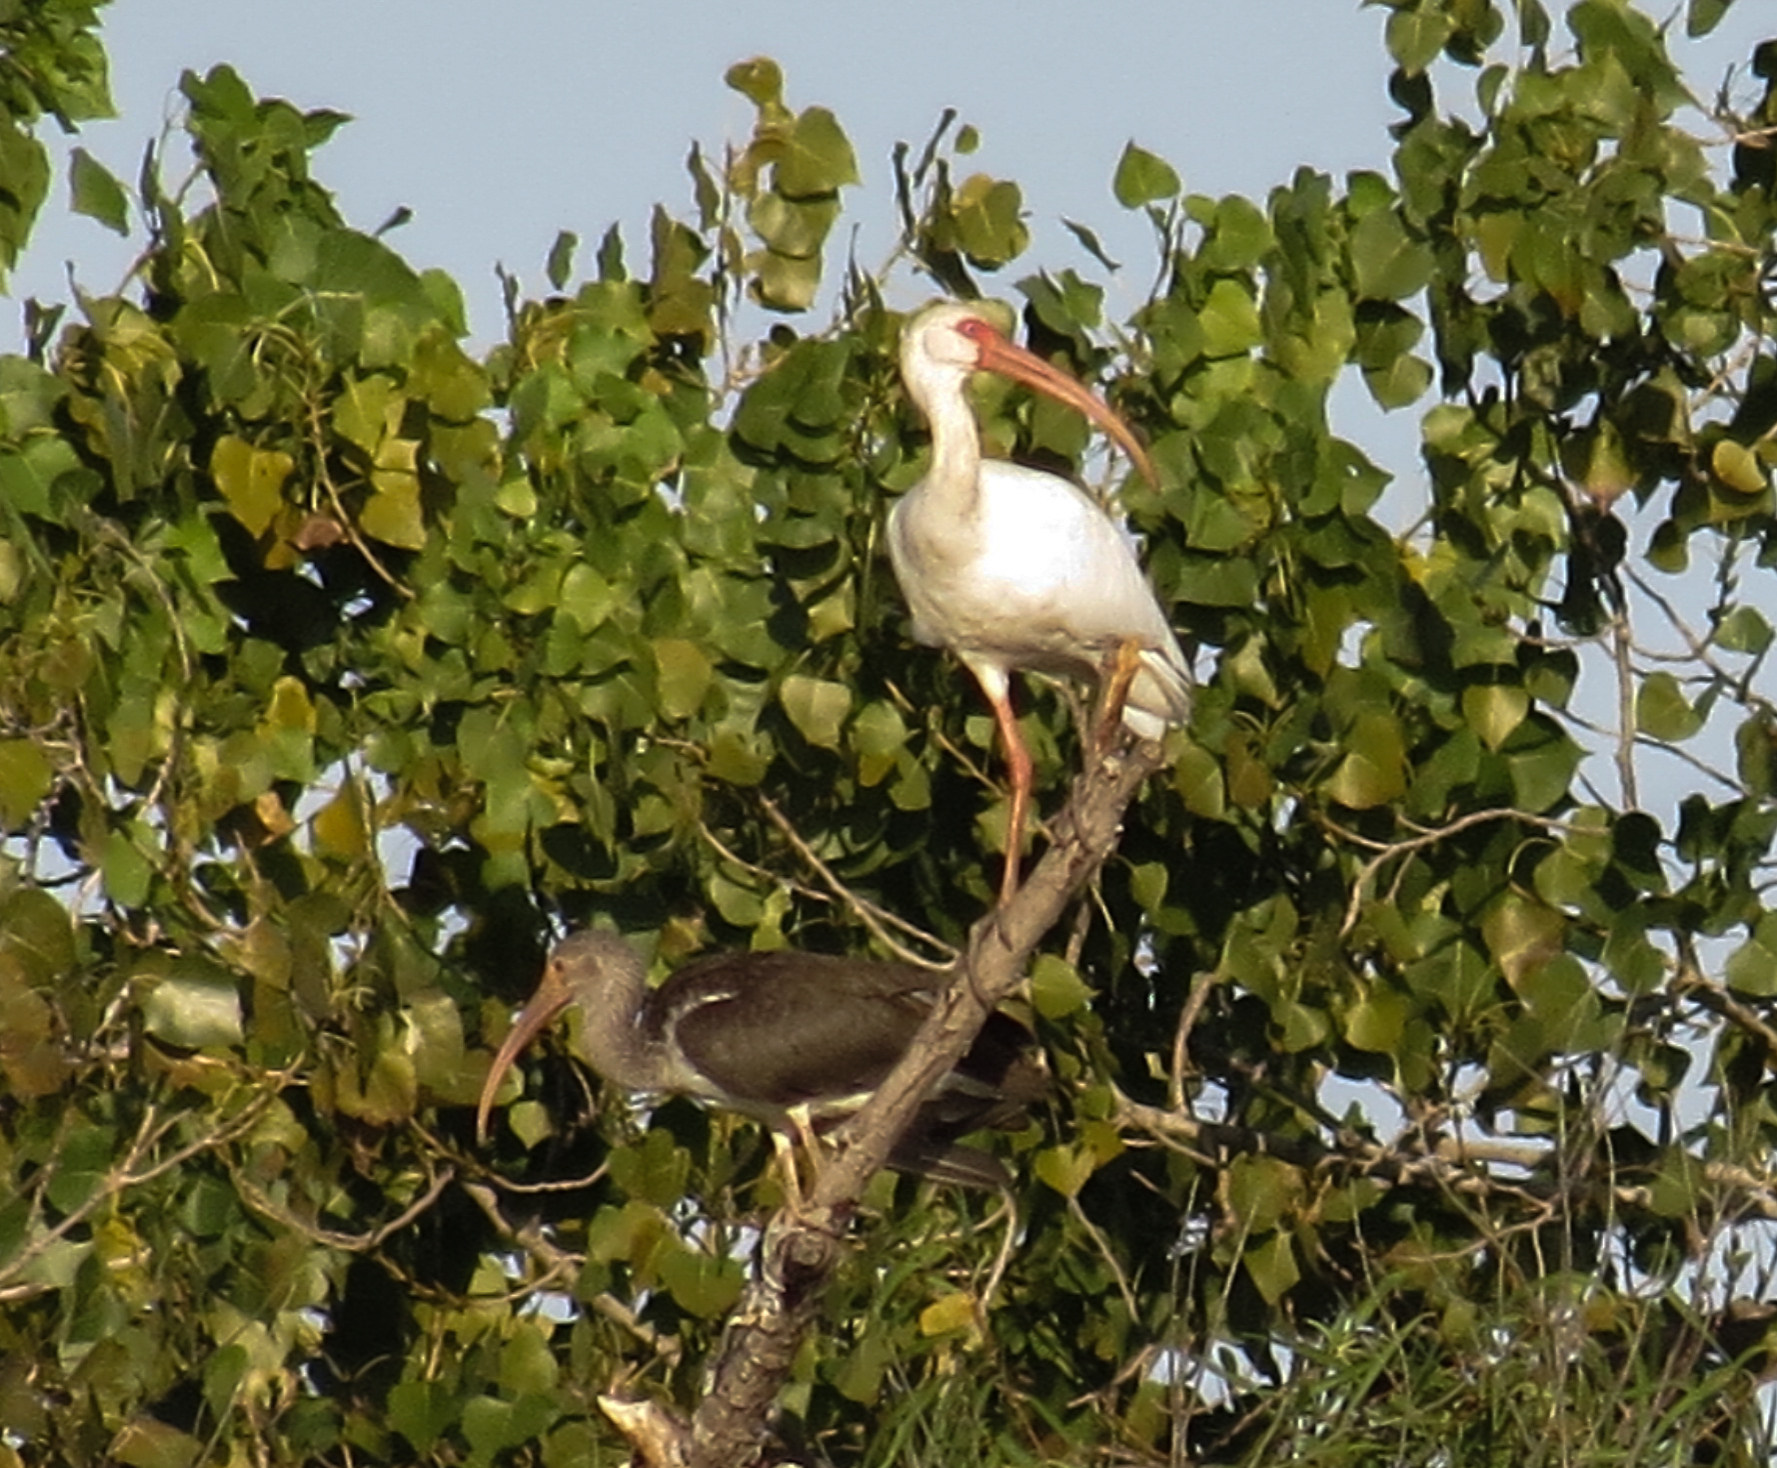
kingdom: Animalia
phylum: Chordata
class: Aves
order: Pelecaniformes
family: Threskiornithidae
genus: Eudocimus
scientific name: Eudocimus albus
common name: White ibis
